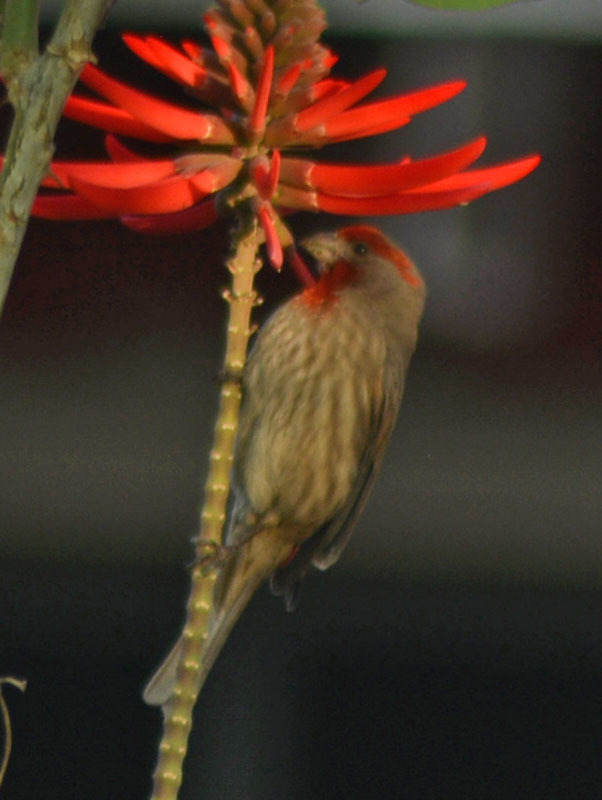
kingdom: Animalia
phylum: Chordata
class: Aves
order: Passeriformes
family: Fringillidae
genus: Haemorhous
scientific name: Haemorhous mexicanus
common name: House finch
